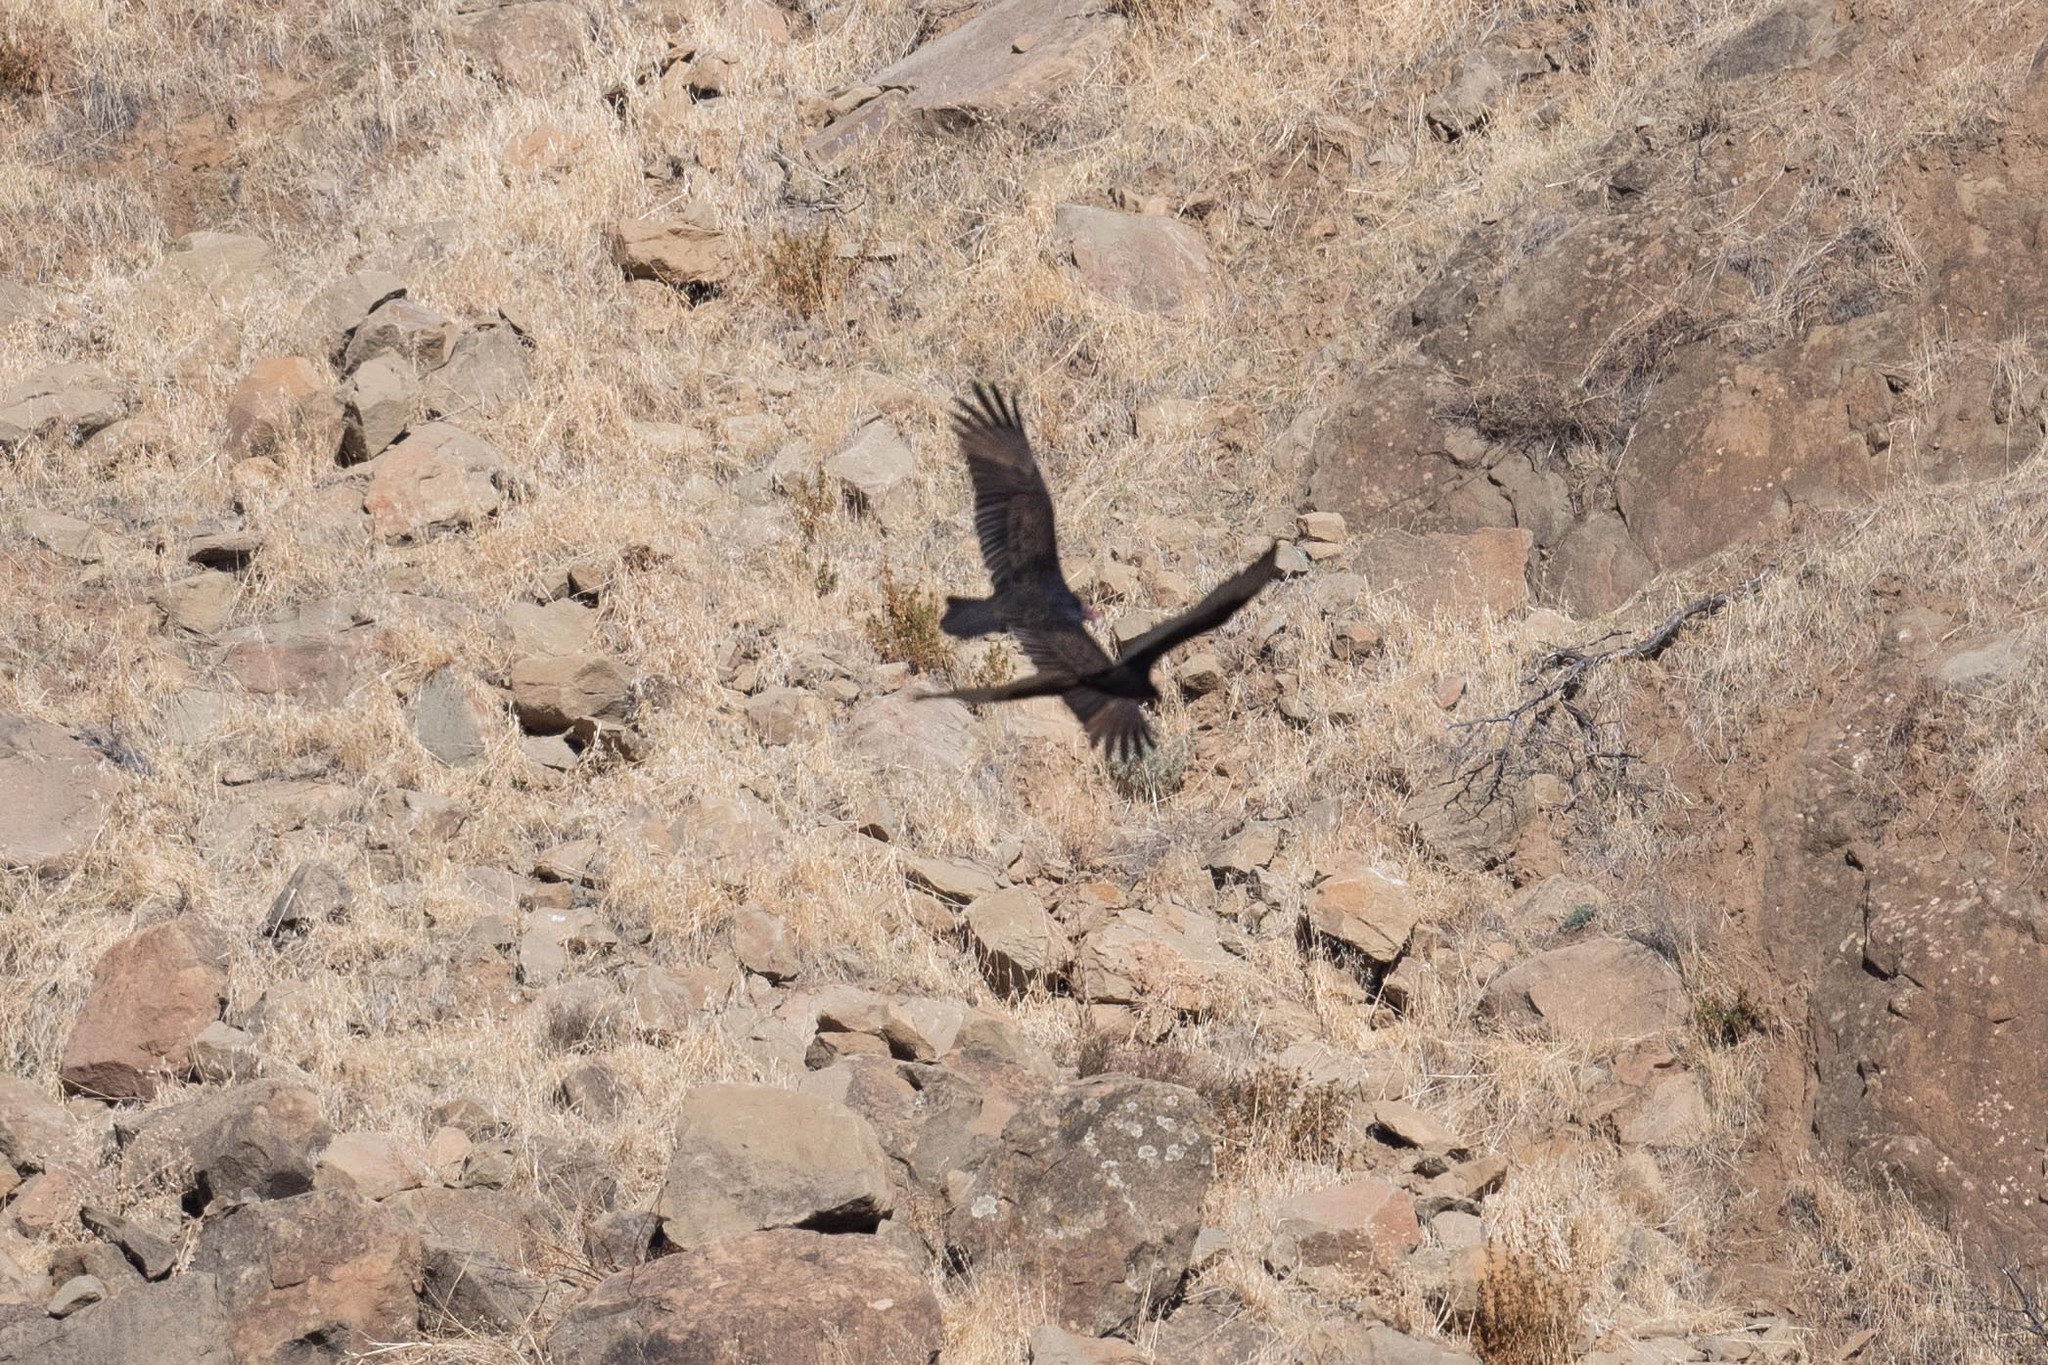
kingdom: Animalia
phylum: Chordata
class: Aves
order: Accipitriformes
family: Cathartidae
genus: Cathartes
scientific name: Cathartes aura
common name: Turkey vulture
